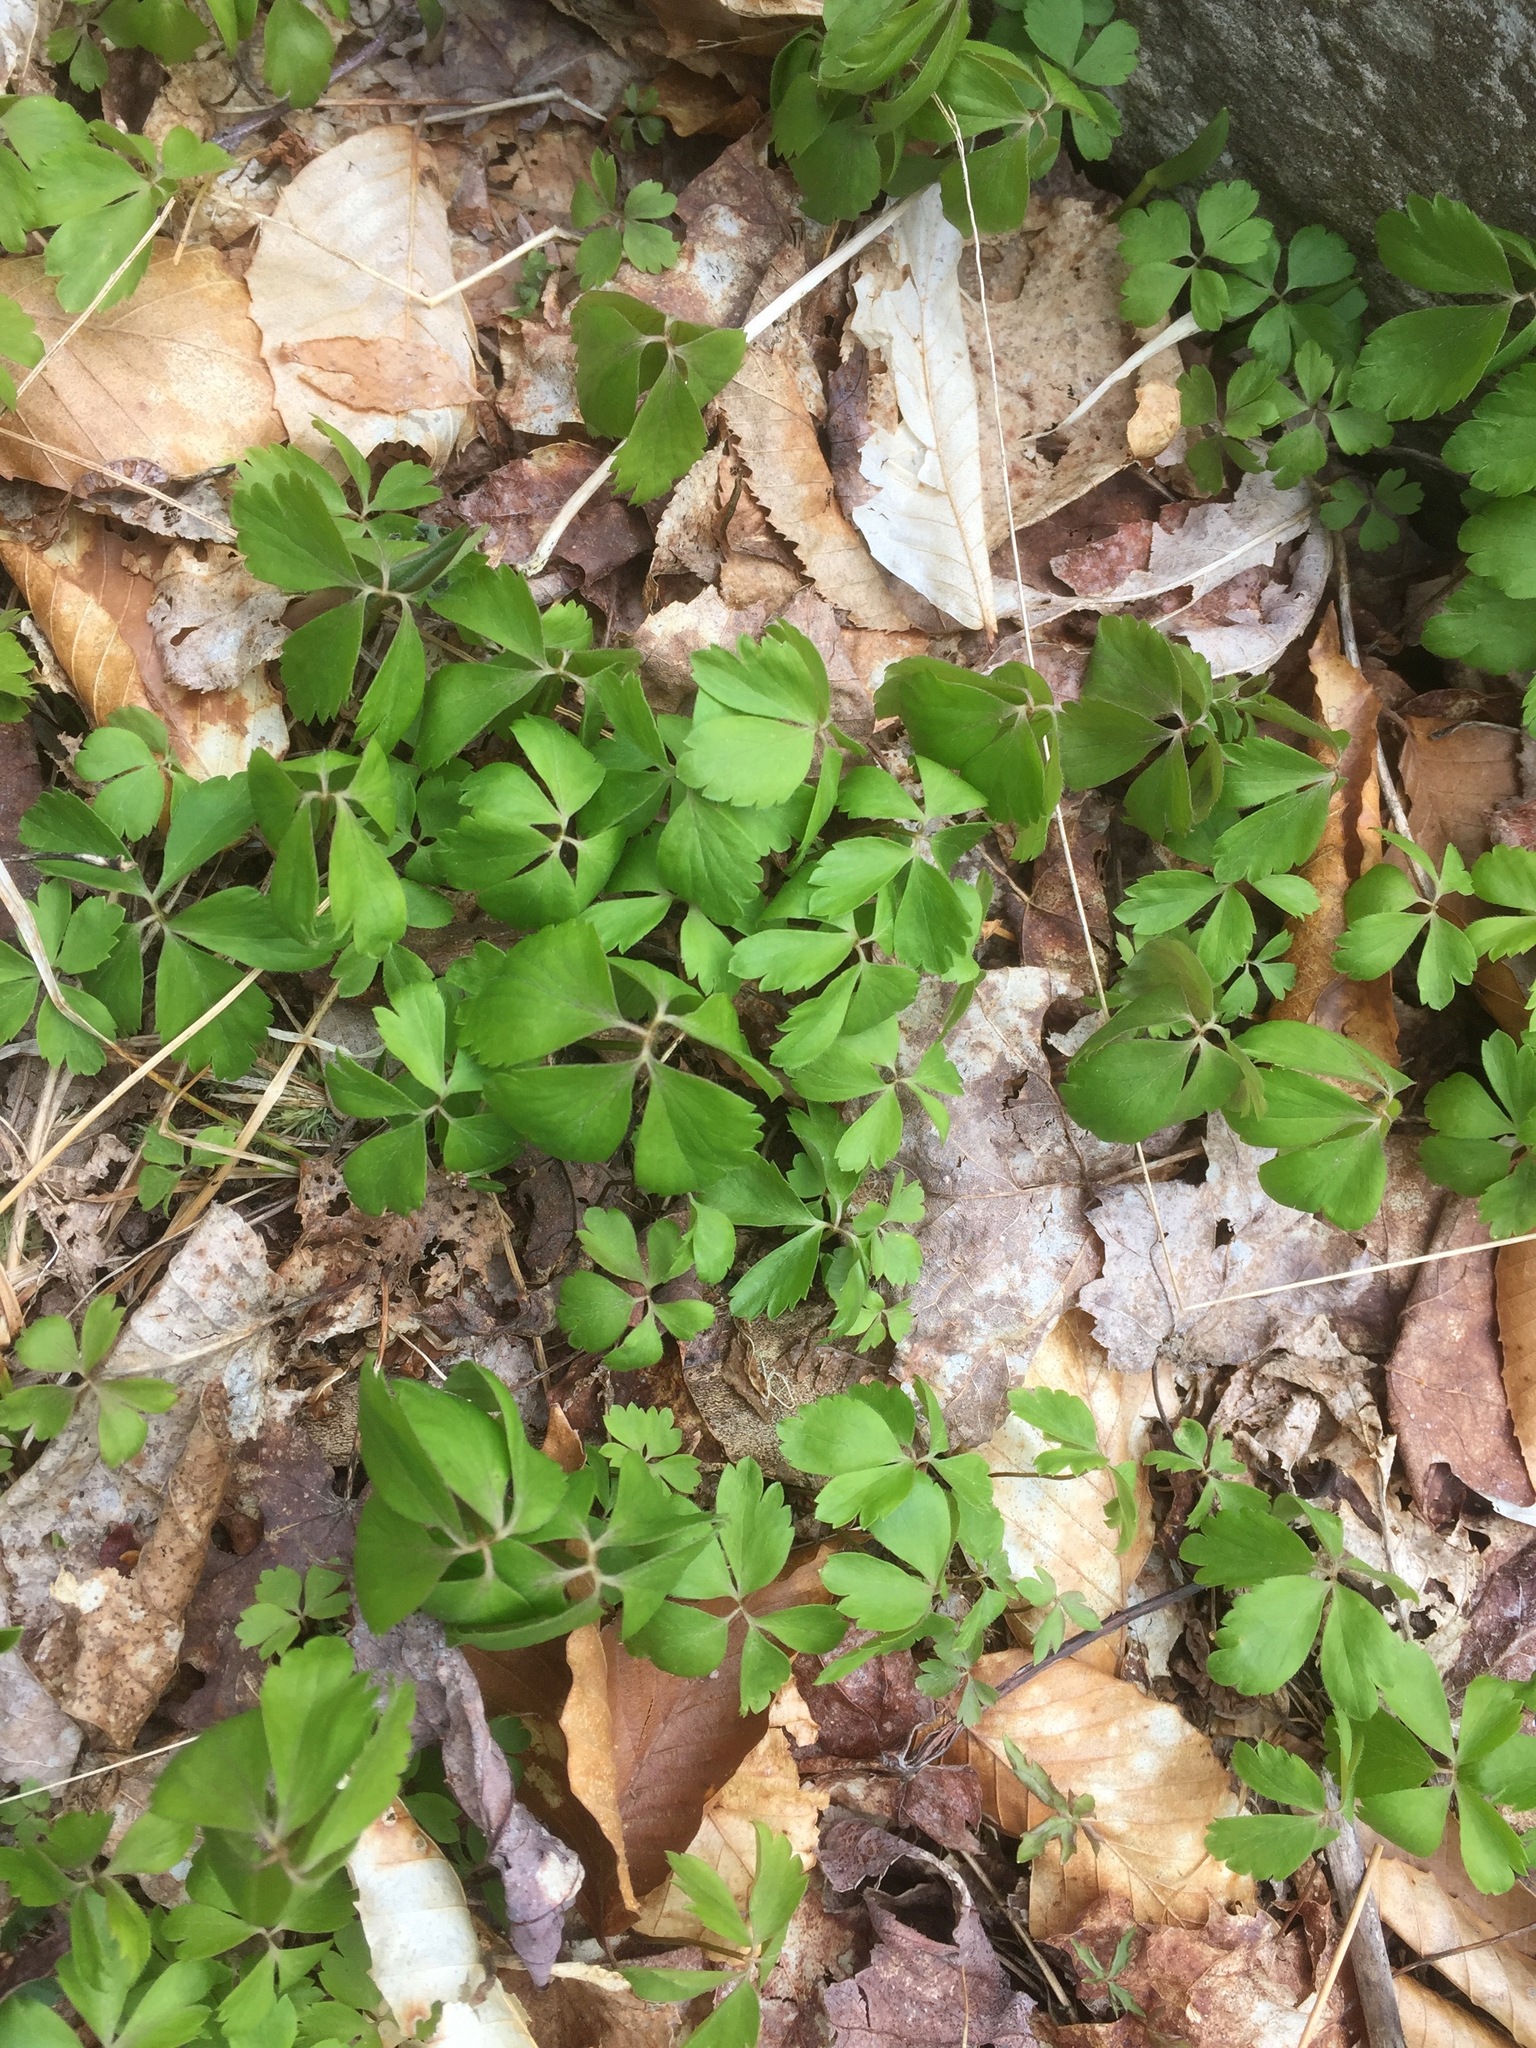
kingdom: Plantae
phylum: Tracheophyta
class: Magnoliopsida
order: Ranunculales
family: Ranunculaceae
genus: Anemone
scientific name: Anemone quinquefolia
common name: Wood anemone
